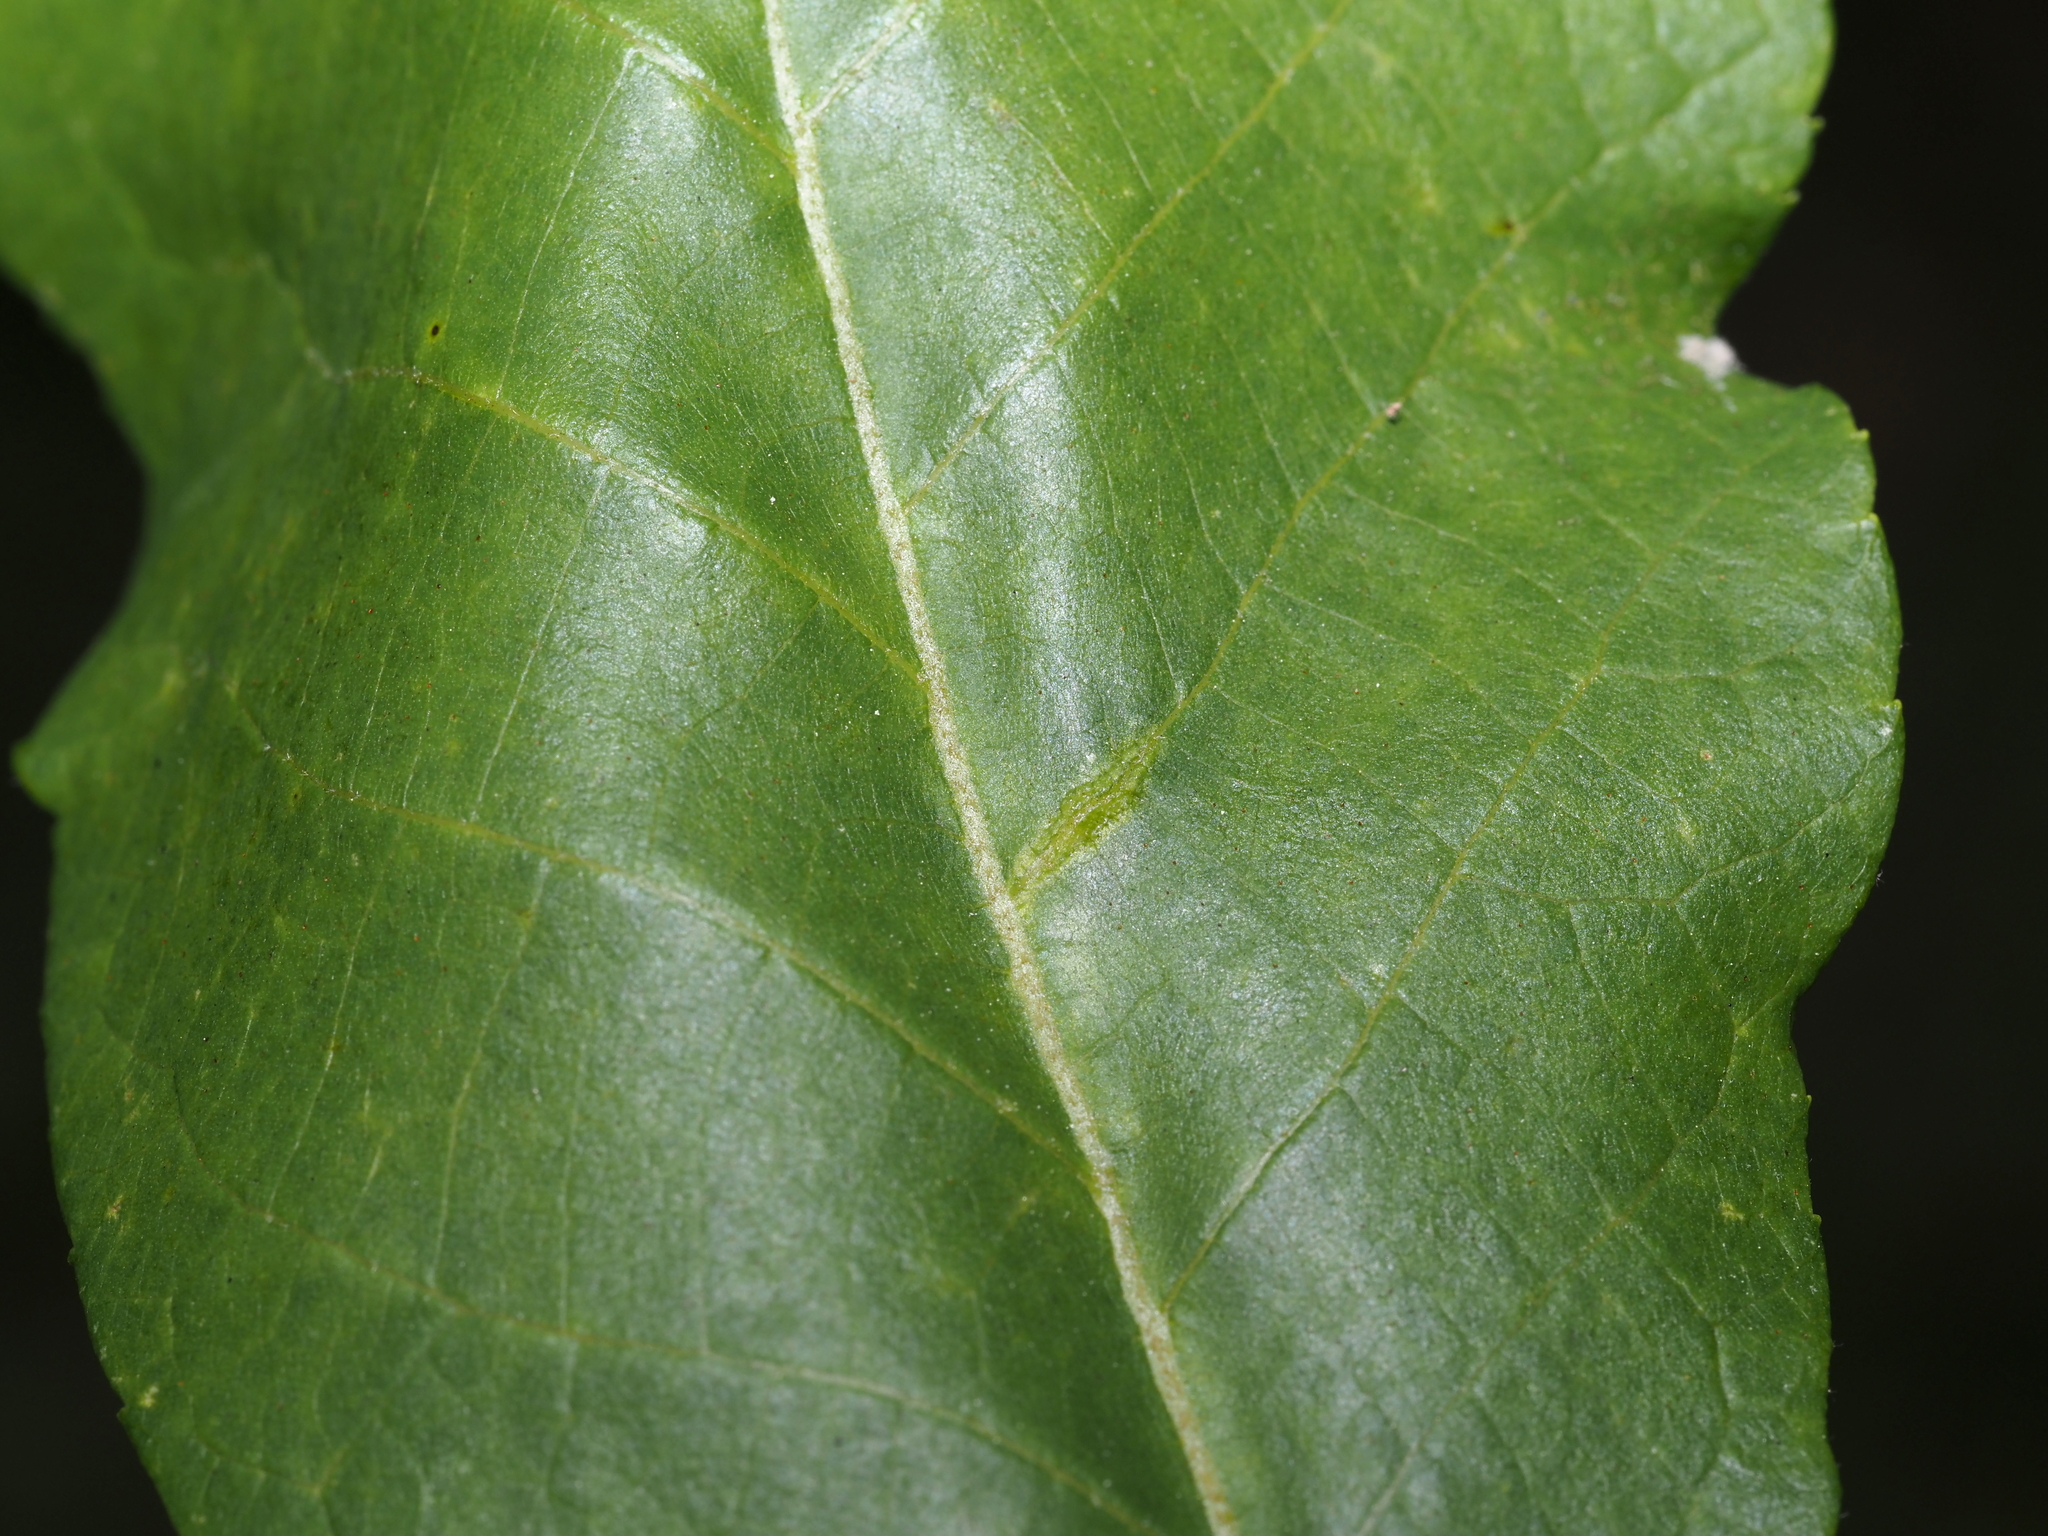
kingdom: Animalia
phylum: Arthropoda
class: Insecta
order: Hemiptera
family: Phylloxeridae
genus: Phylloxera
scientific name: Phylloxera caryaevenae
